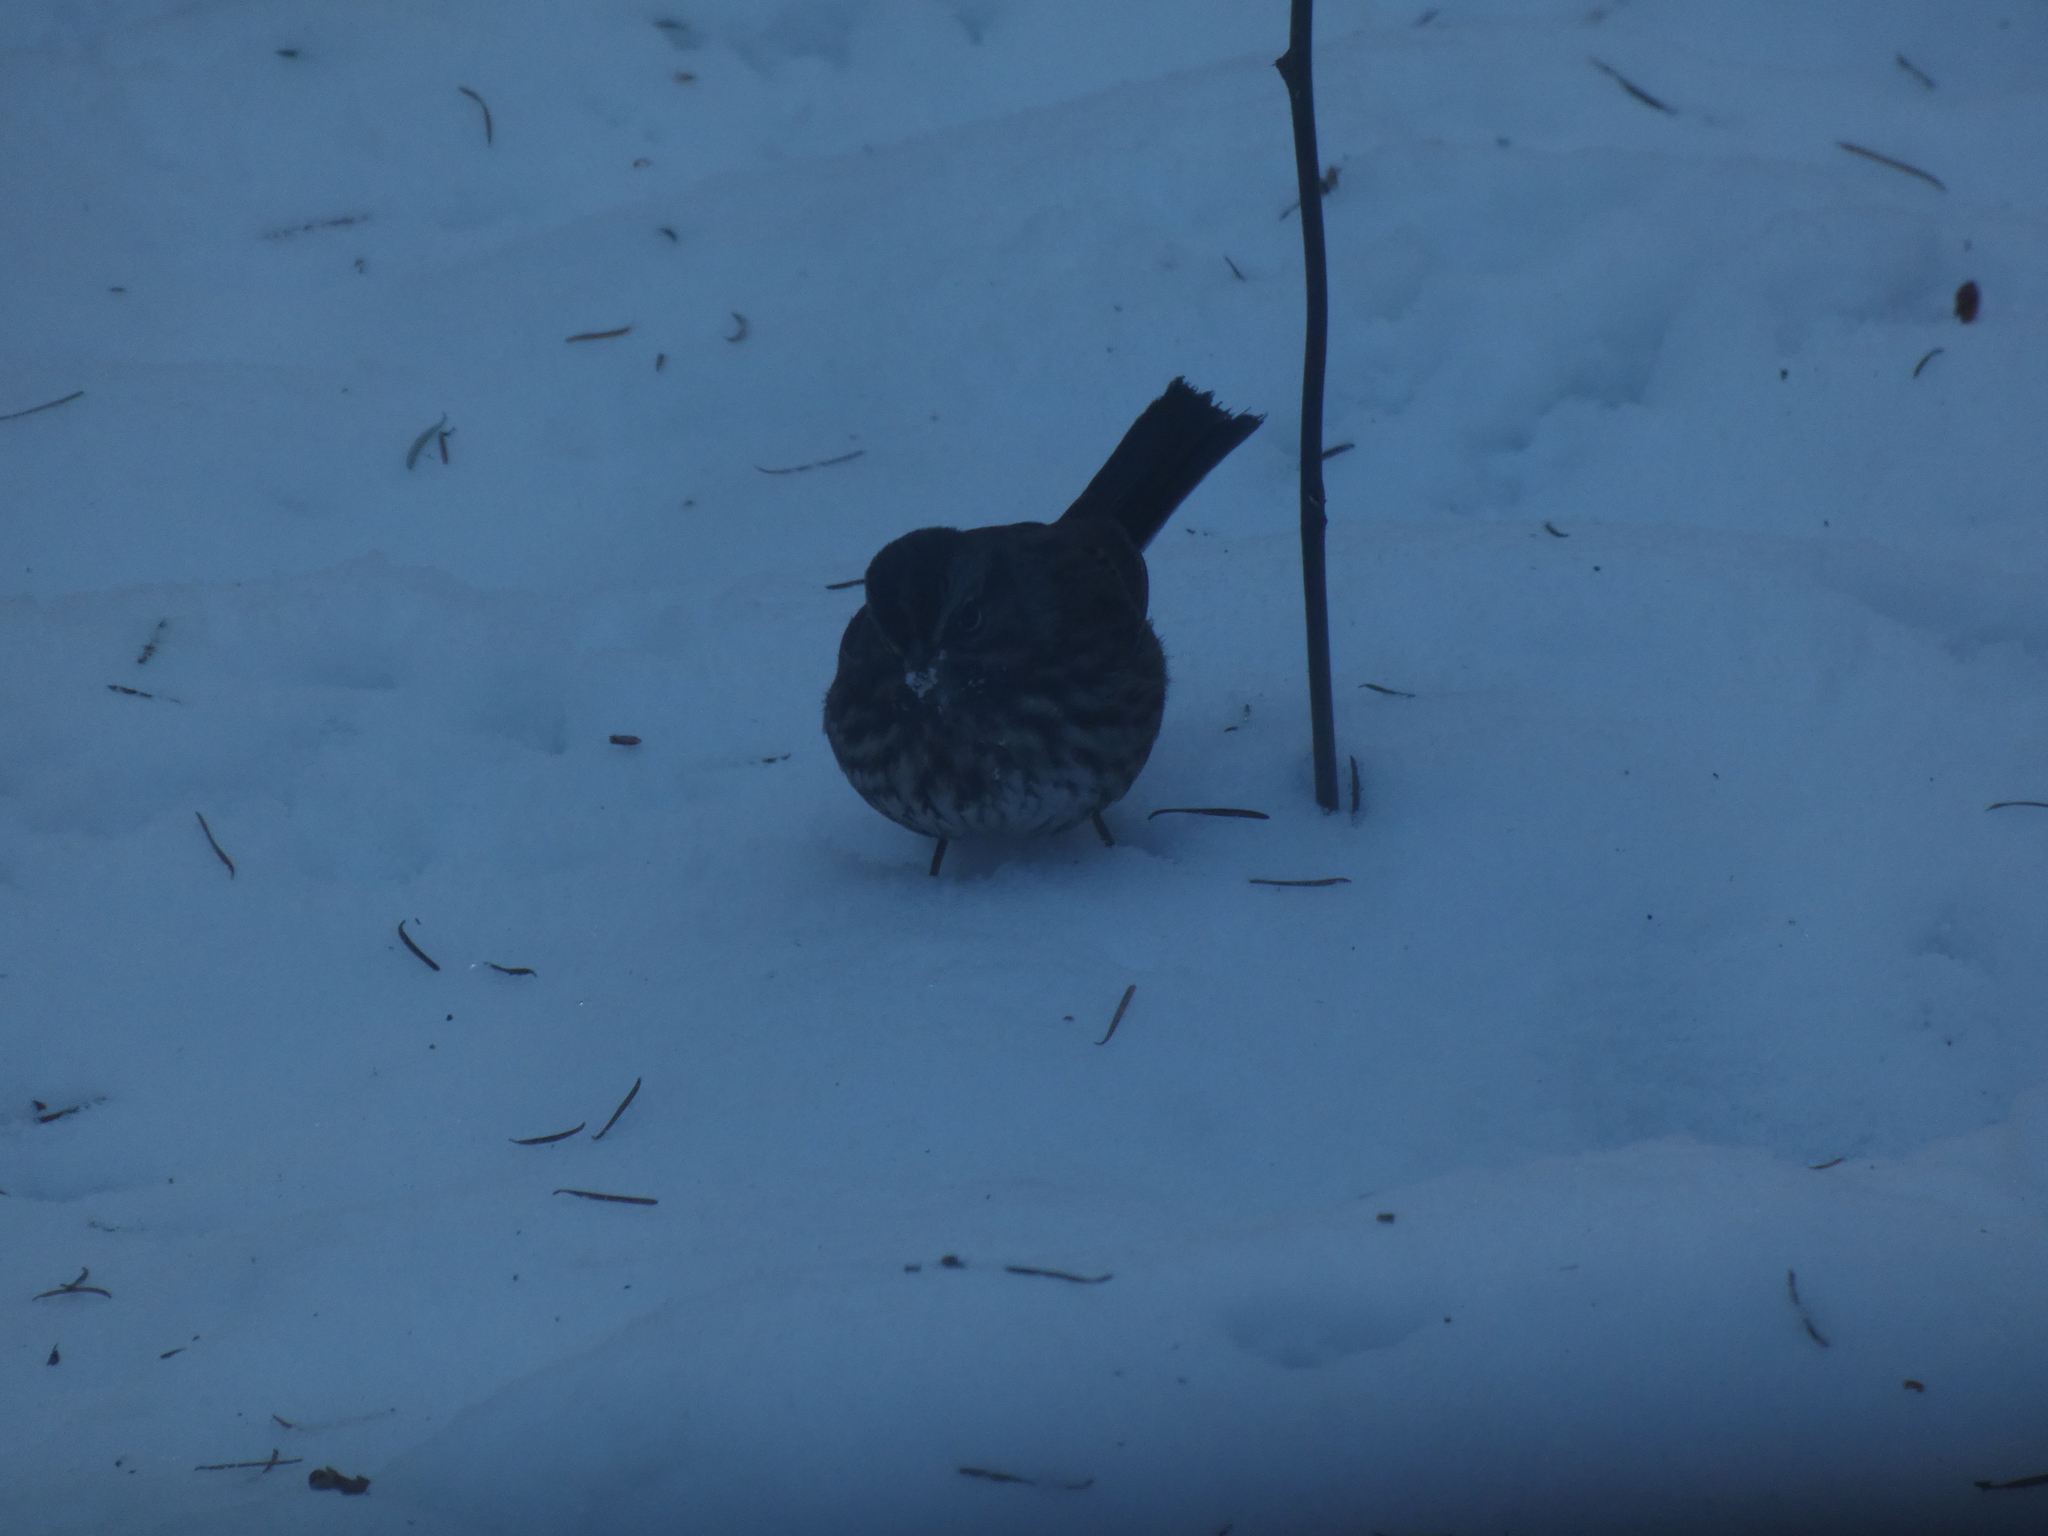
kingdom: Animalia
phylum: Chordata
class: Aves
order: Passeriformes
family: Passerellidae
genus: Melospiza
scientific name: Melospiza melodia
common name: Song sparrow
